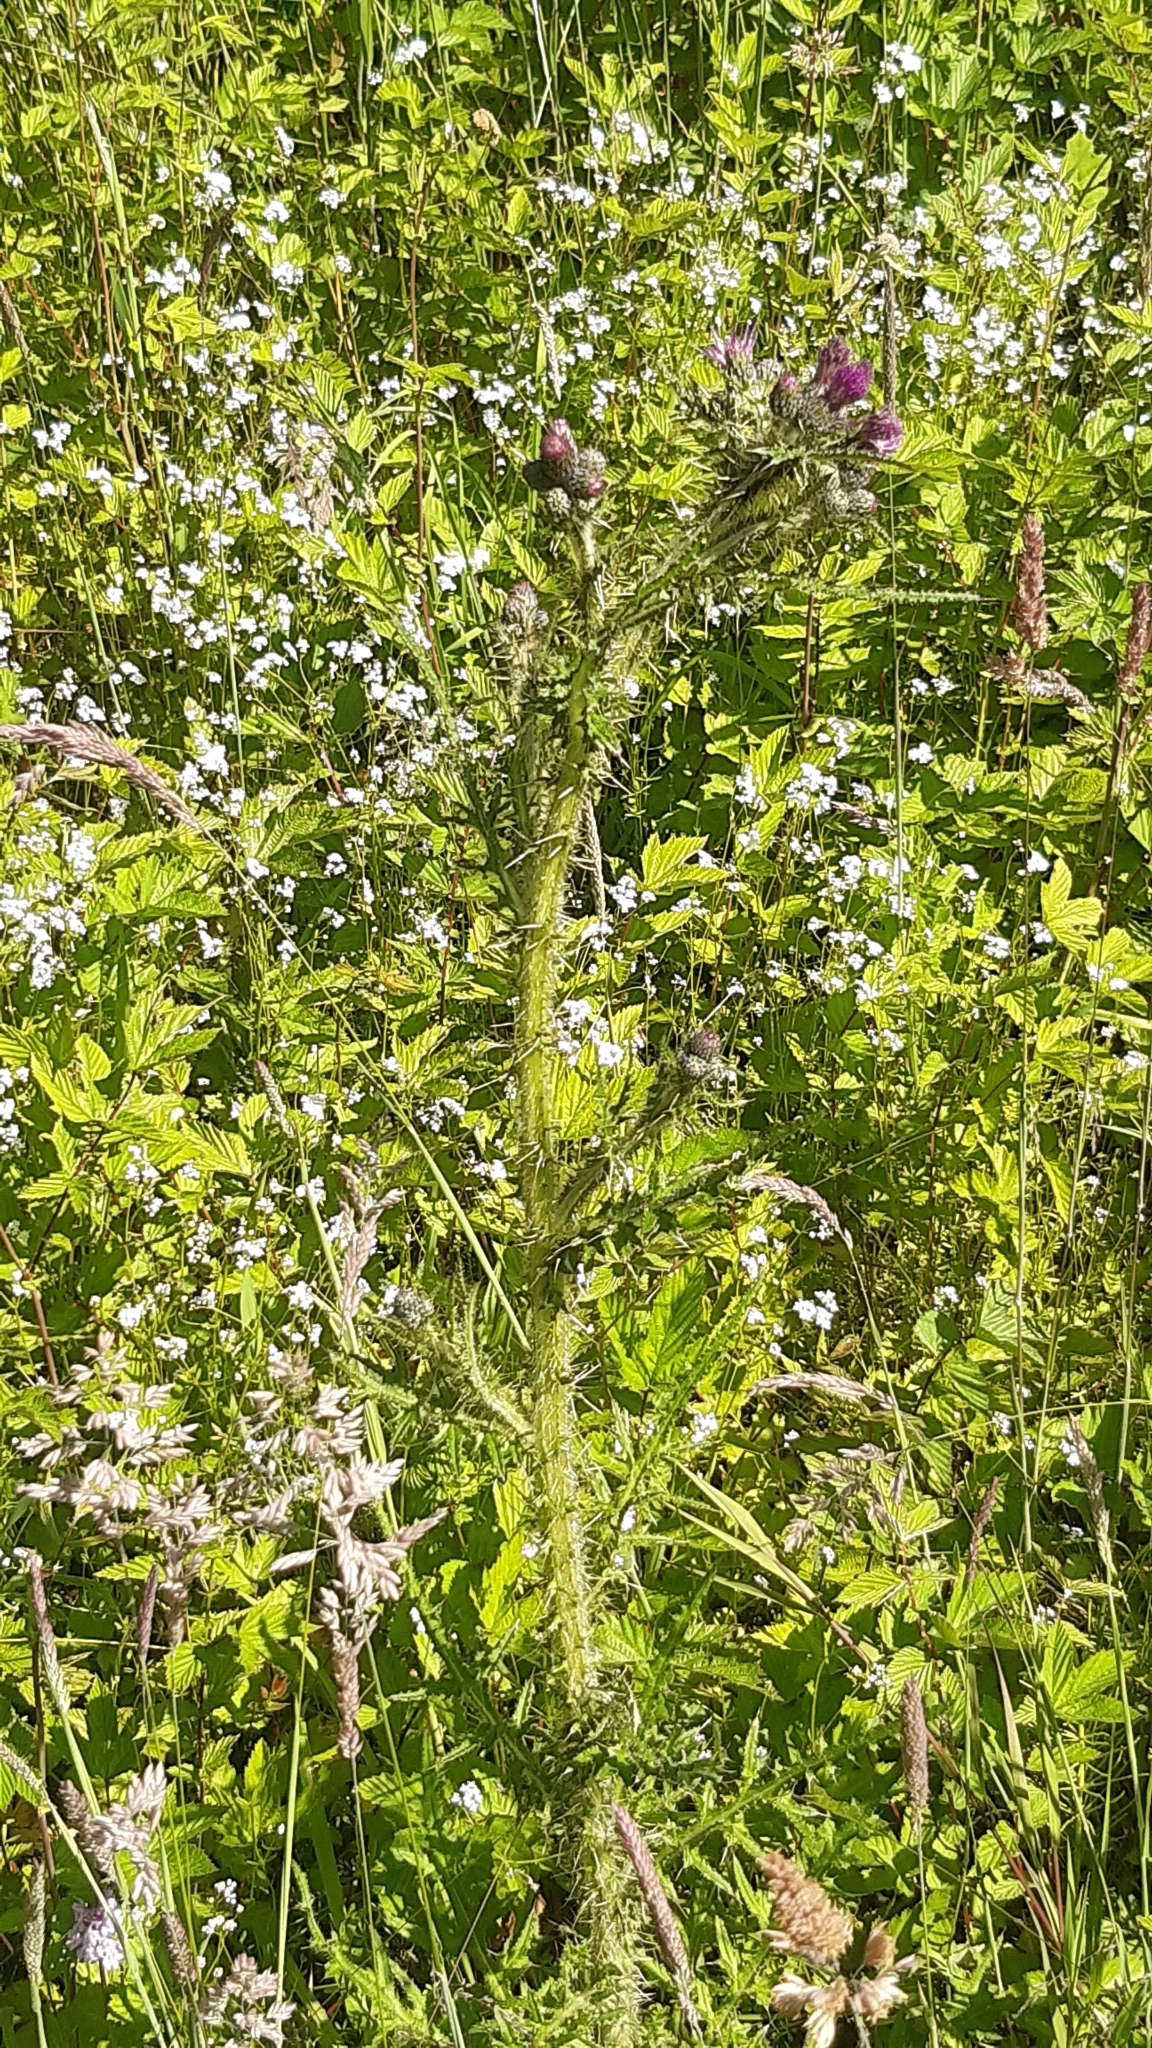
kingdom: Plantae
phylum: Tracheophyta
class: Magnoliopsida
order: Asterales
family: Asteraceae
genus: Cirsium
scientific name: Cirsium palustre
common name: Marsh thistle
